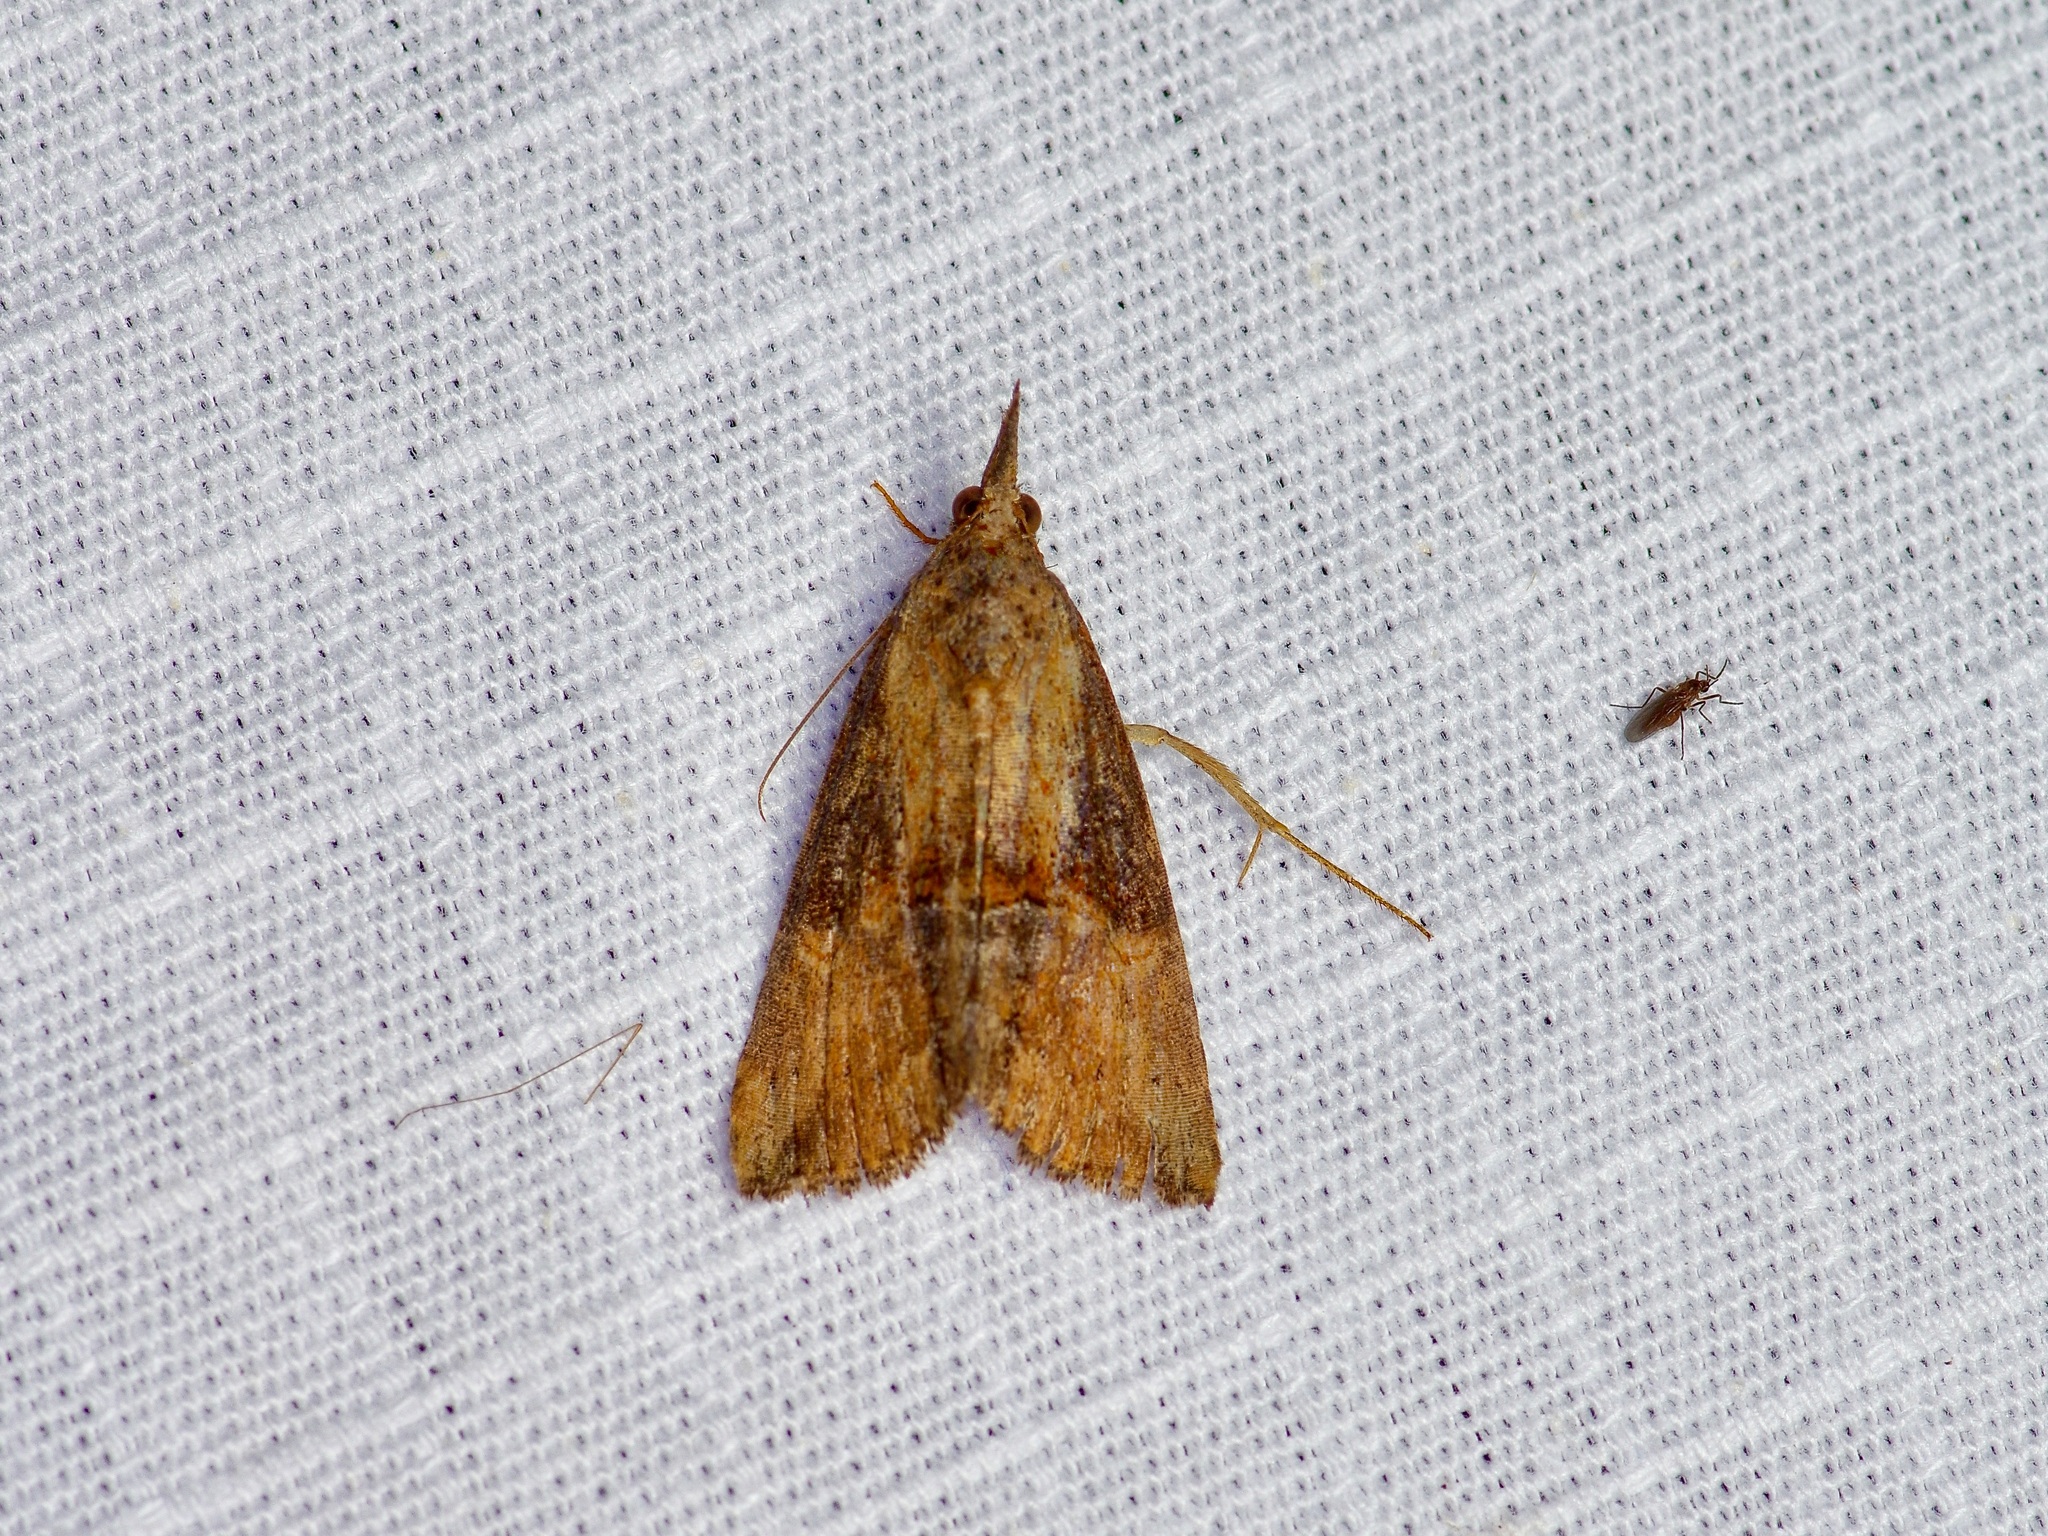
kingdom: Animalia
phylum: Arthropoda
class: Insecta
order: Lepidoptera
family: Erebidae
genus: Hypena
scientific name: Hypena scabra
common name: Green cloverworm
